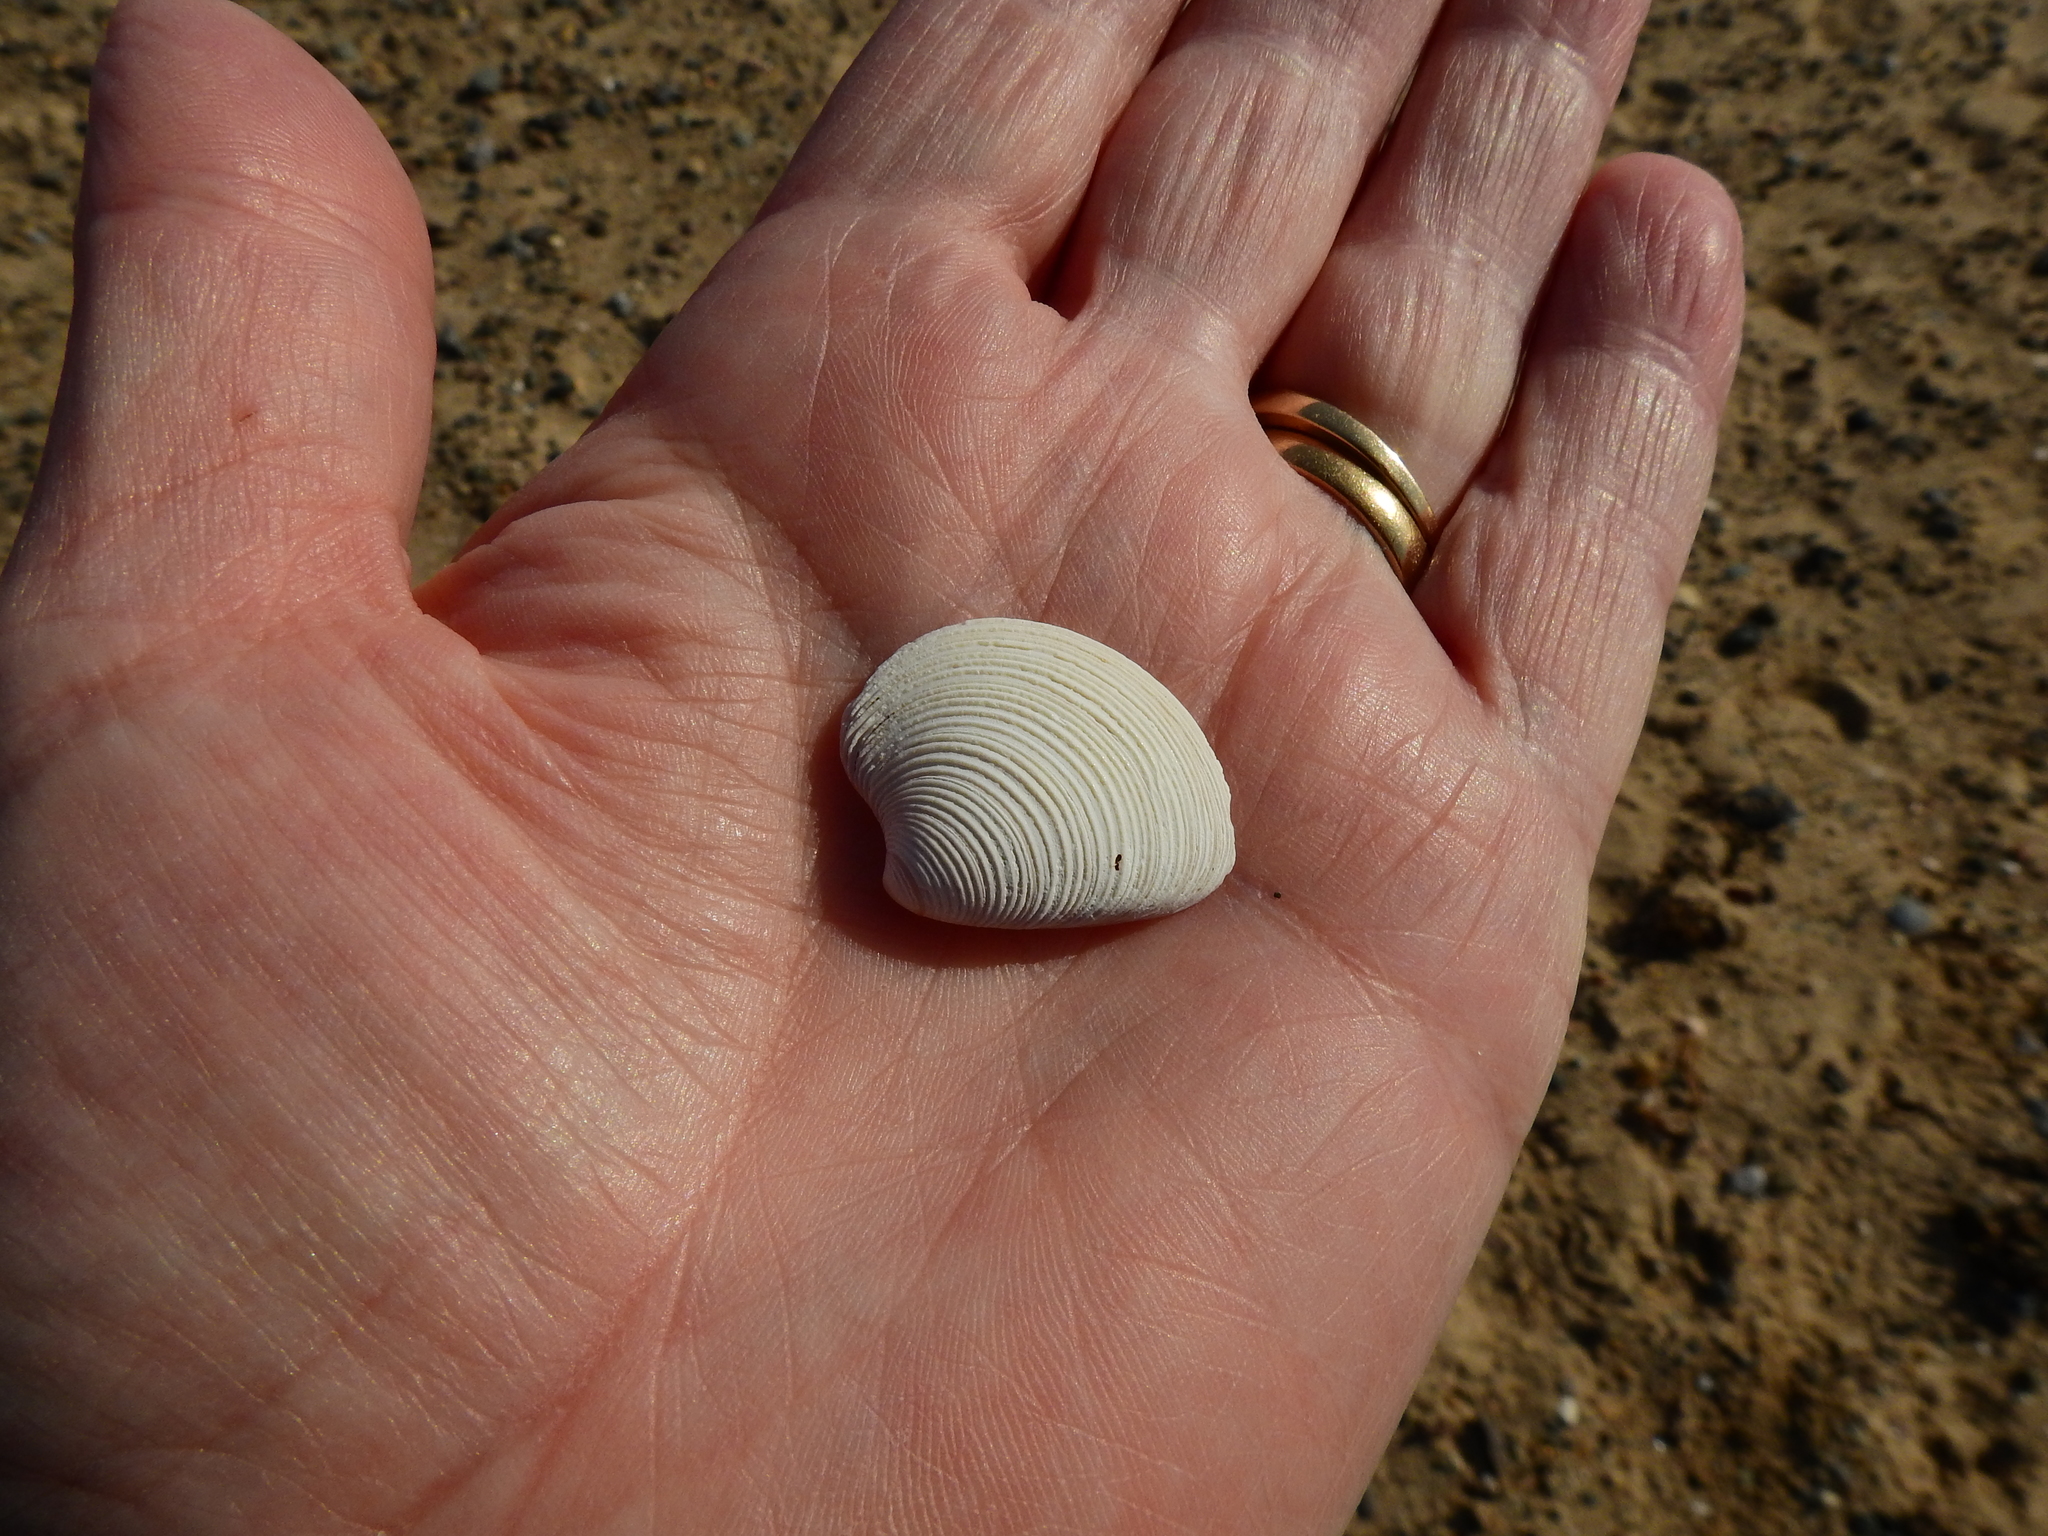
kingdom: Animalia
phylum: Mollusca
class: Bivalvia
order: Venerida
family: Veneridae
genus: Chamelea
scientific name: Chamelea striatula
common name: Striped venus
